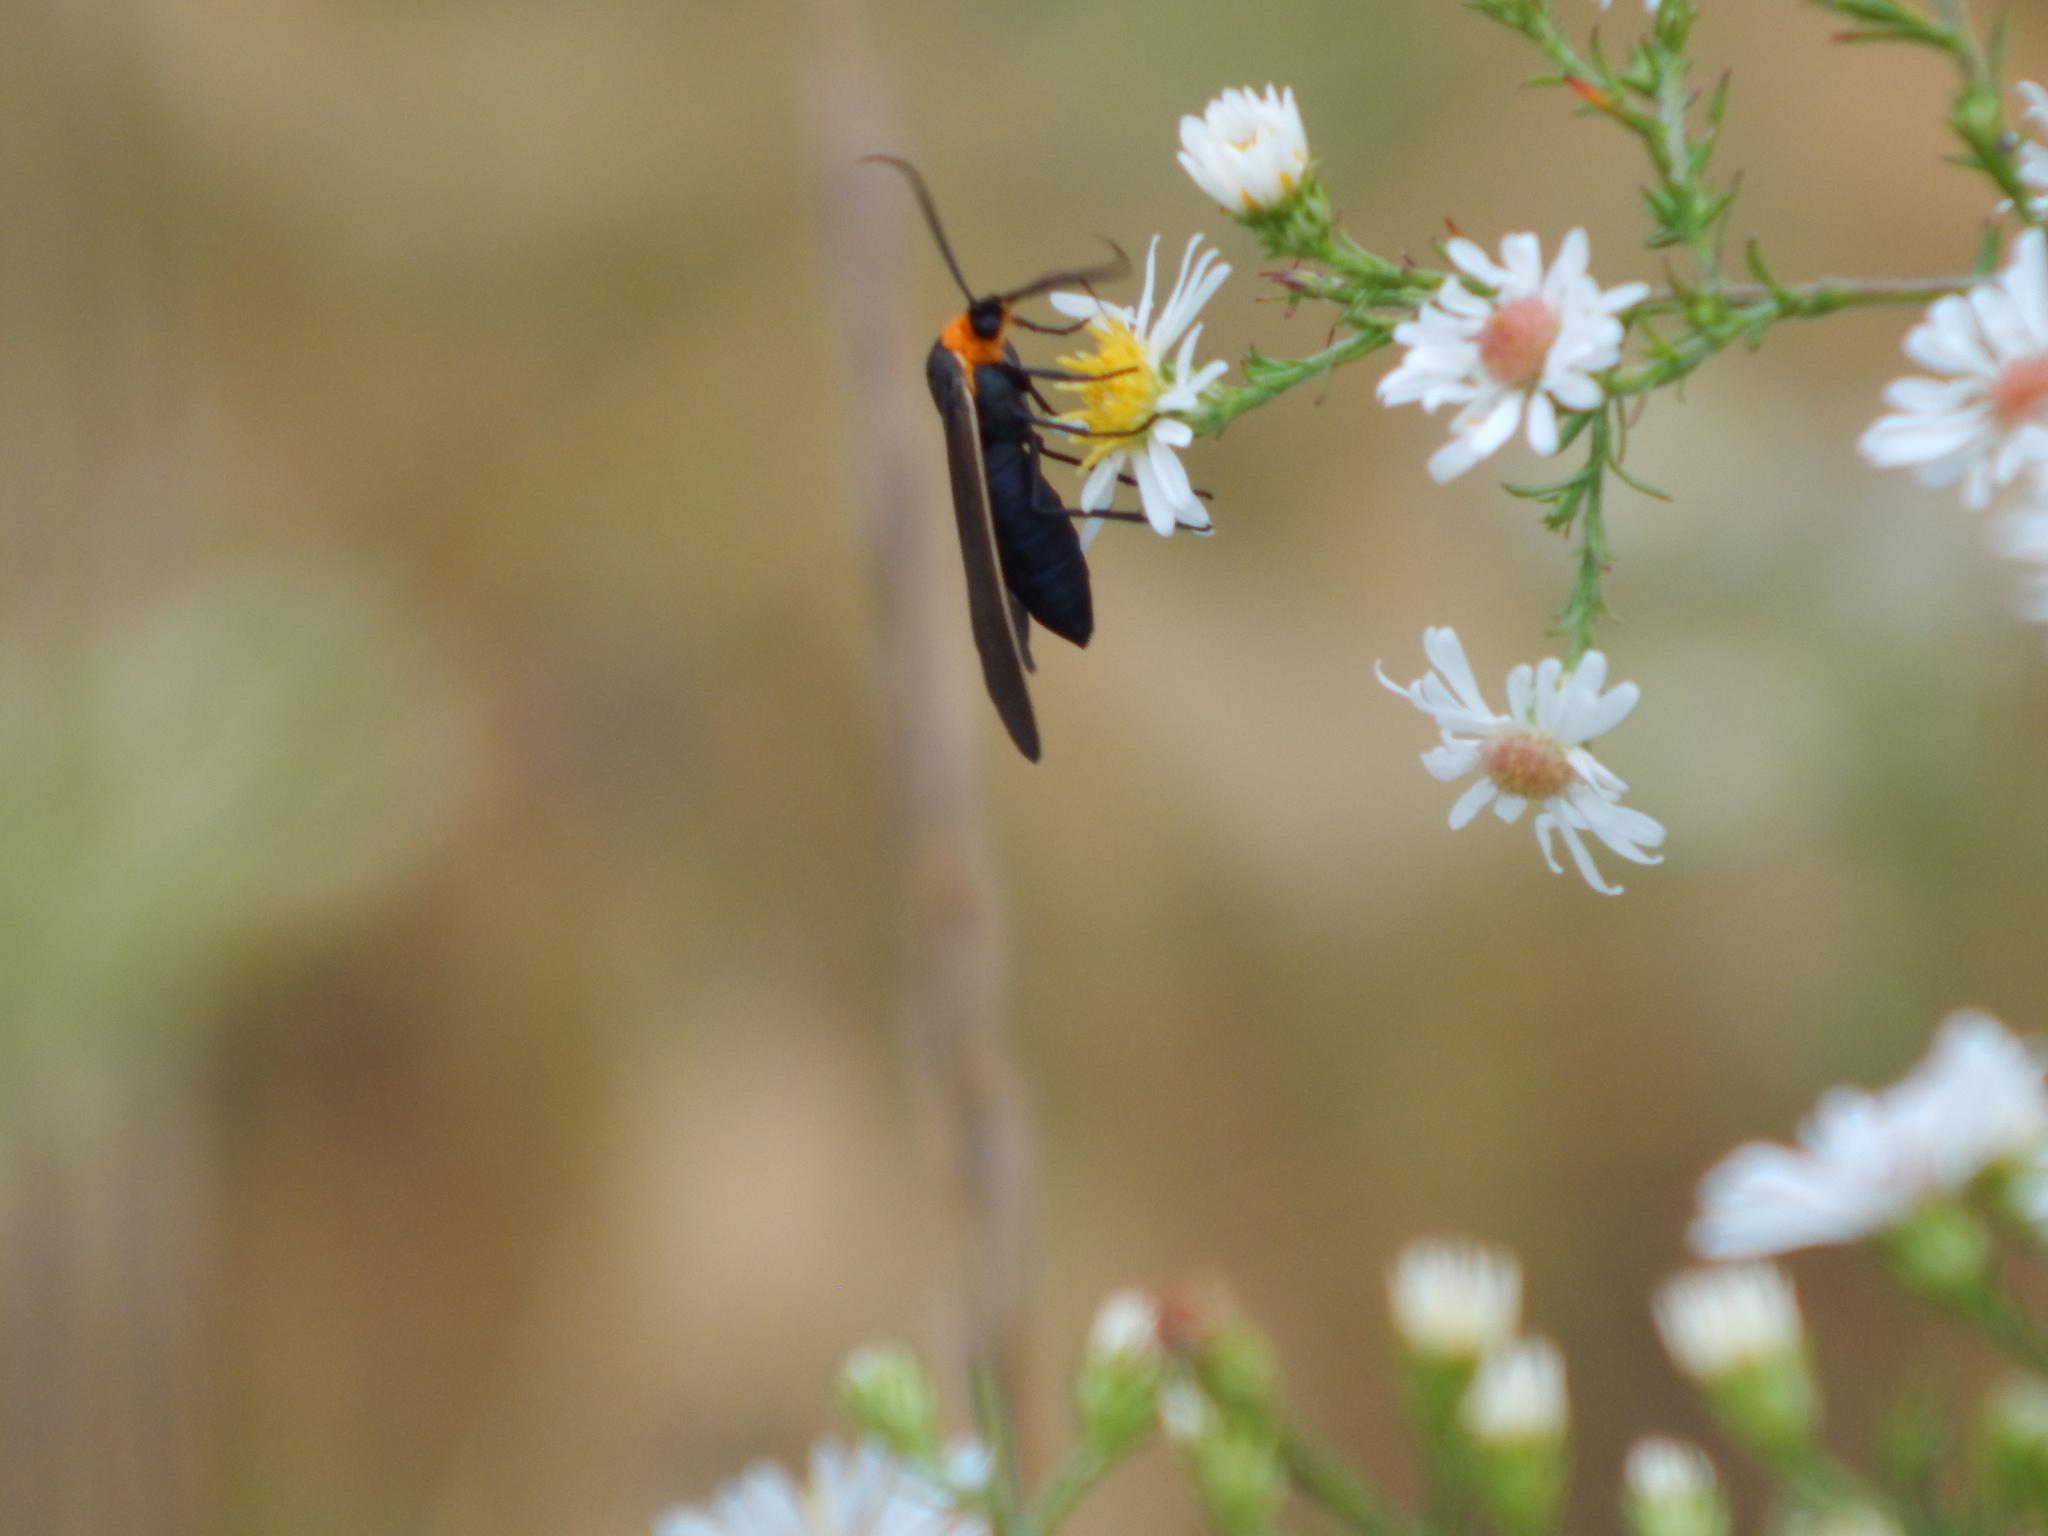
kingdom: Animalia
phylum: Arthropoda
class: Insecta
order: Lepidoptera
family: Erebidae
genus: Cisseps
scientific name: Cisseps fulvicollis
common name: Yellow-collared scape moth
